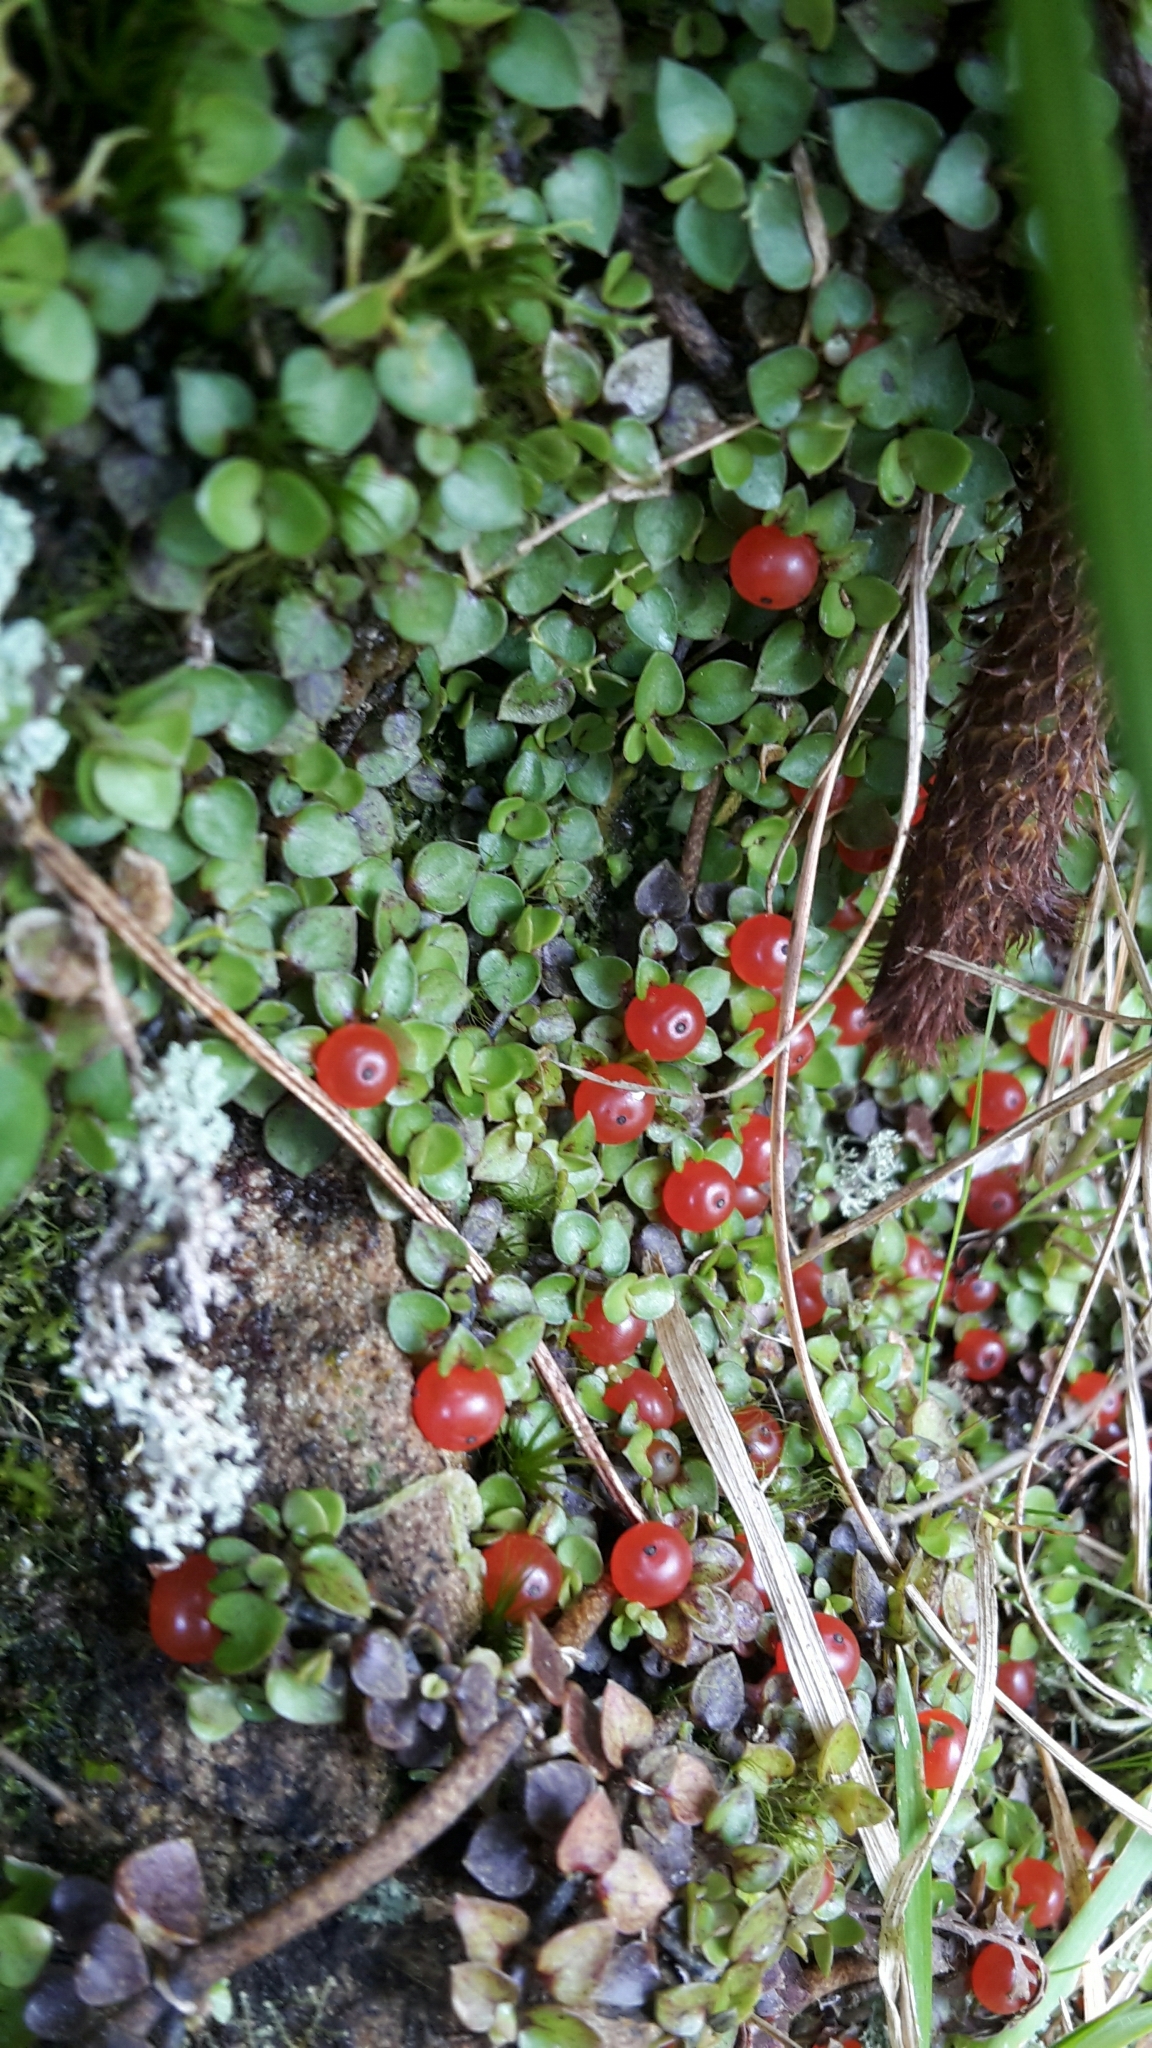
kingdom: Plantae
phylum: Tracheophyta
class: Magnoliopsida
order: Gentianales
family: Rubiaceae
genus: Nertera
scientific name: Nertera granadensis
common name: Beadplant
